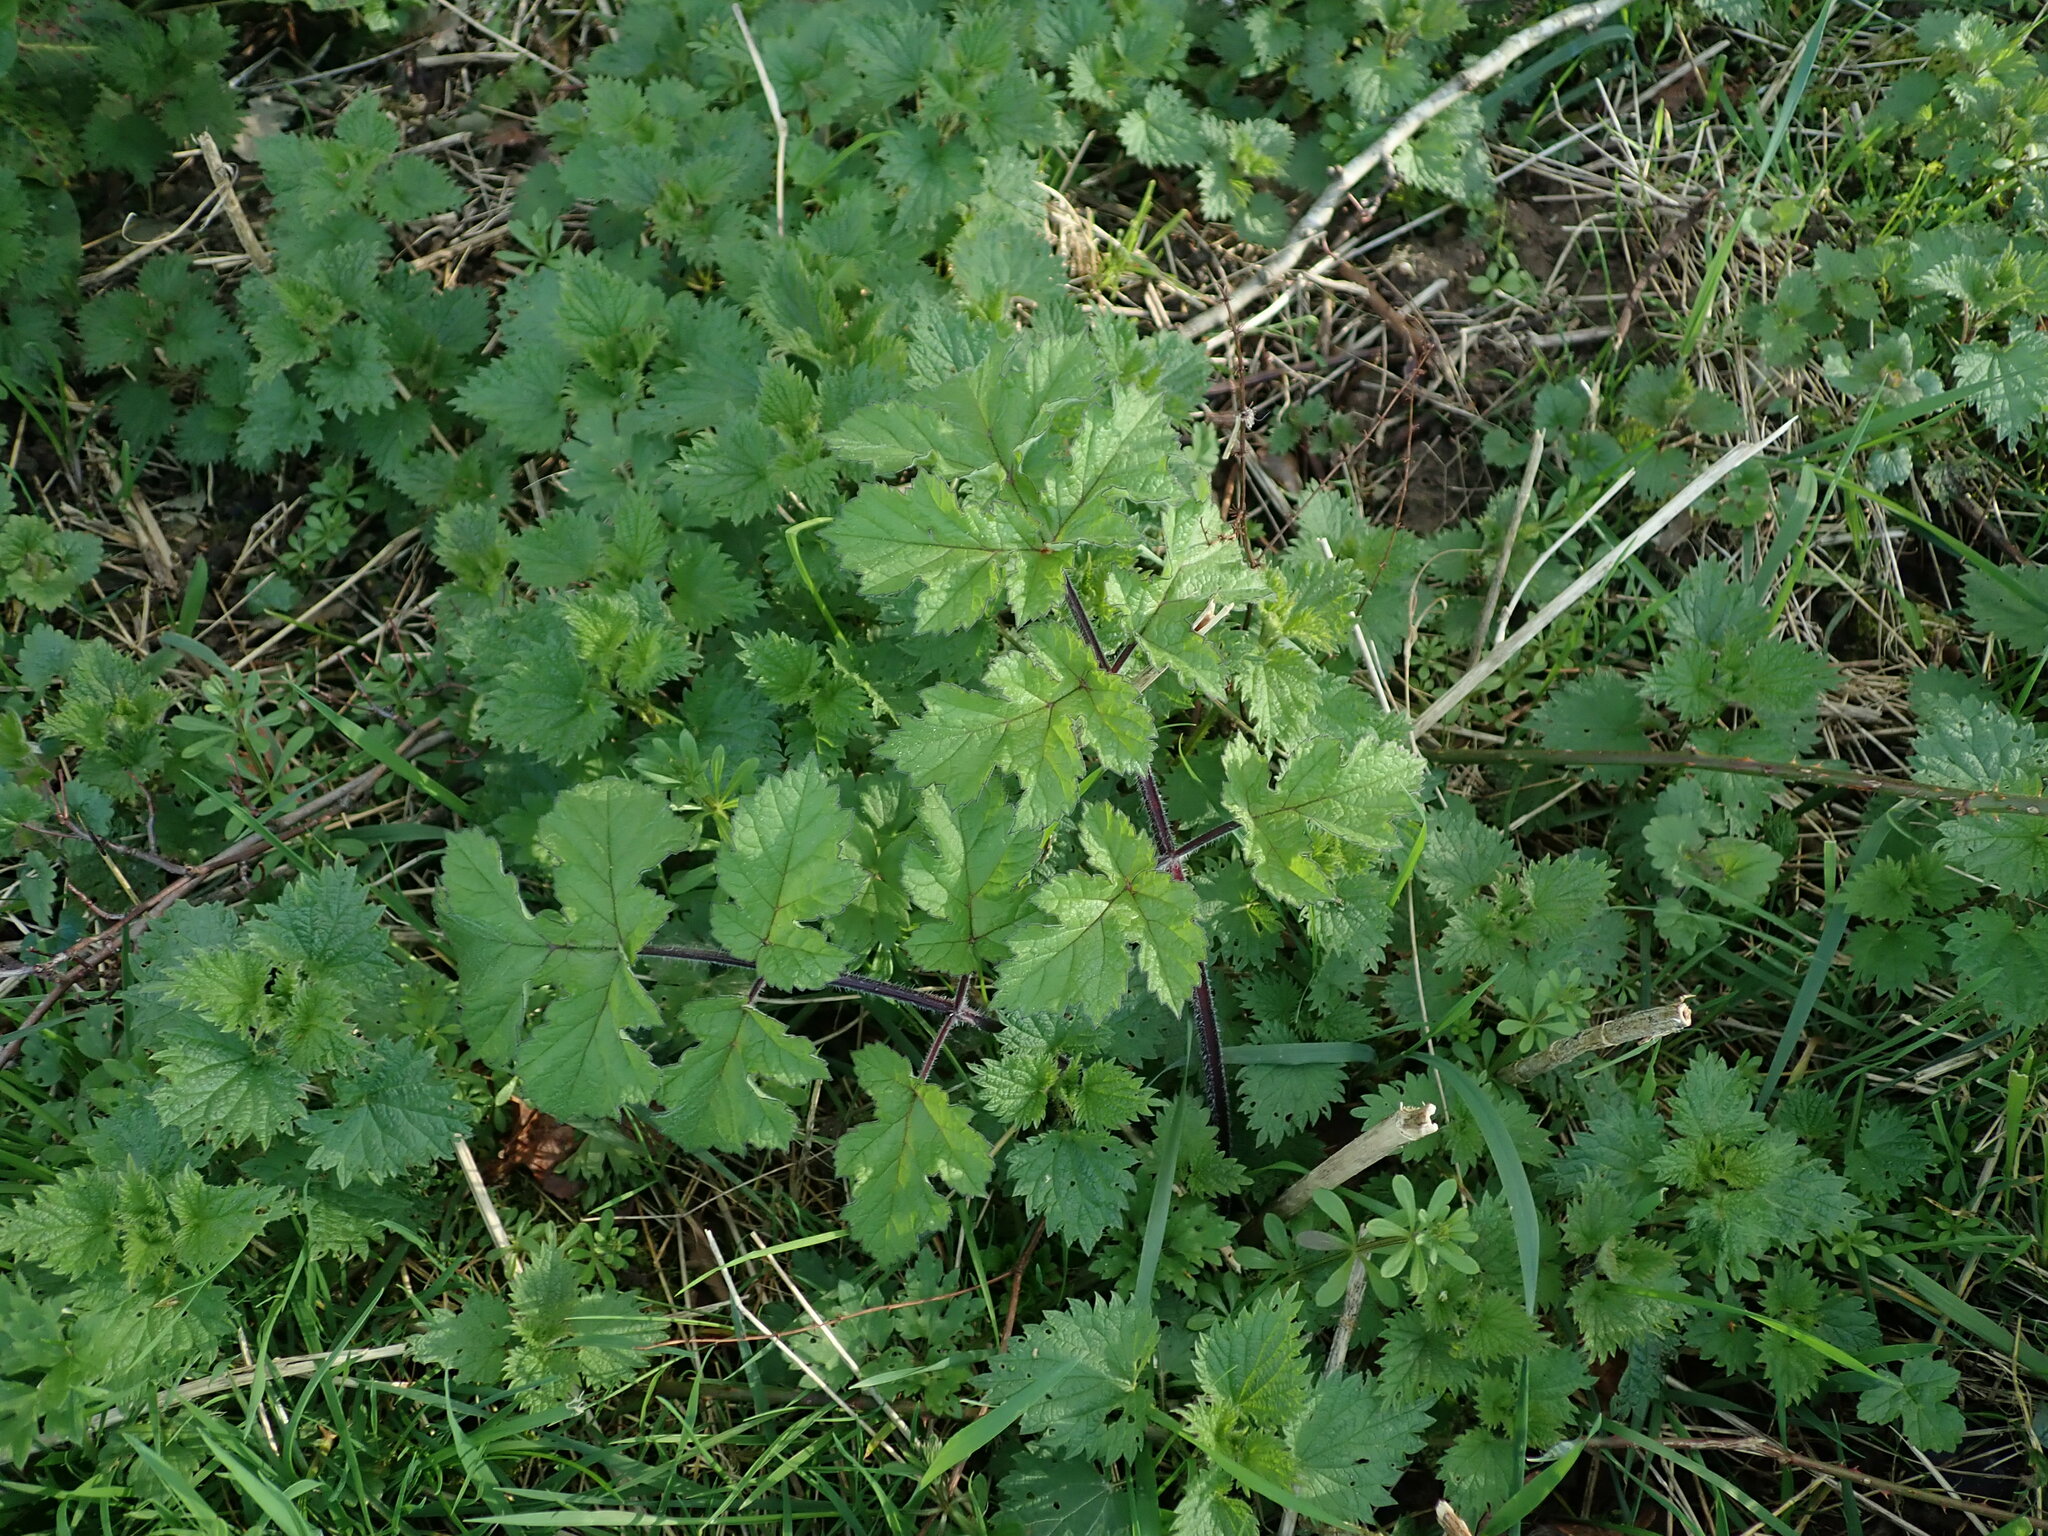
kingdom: Plantae
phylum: Tracheophyta
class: Magnoliopsida
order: Apiales
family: Apiaceae
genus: Heracleum
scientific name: Heracleum sphondylium
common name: Hogweed
